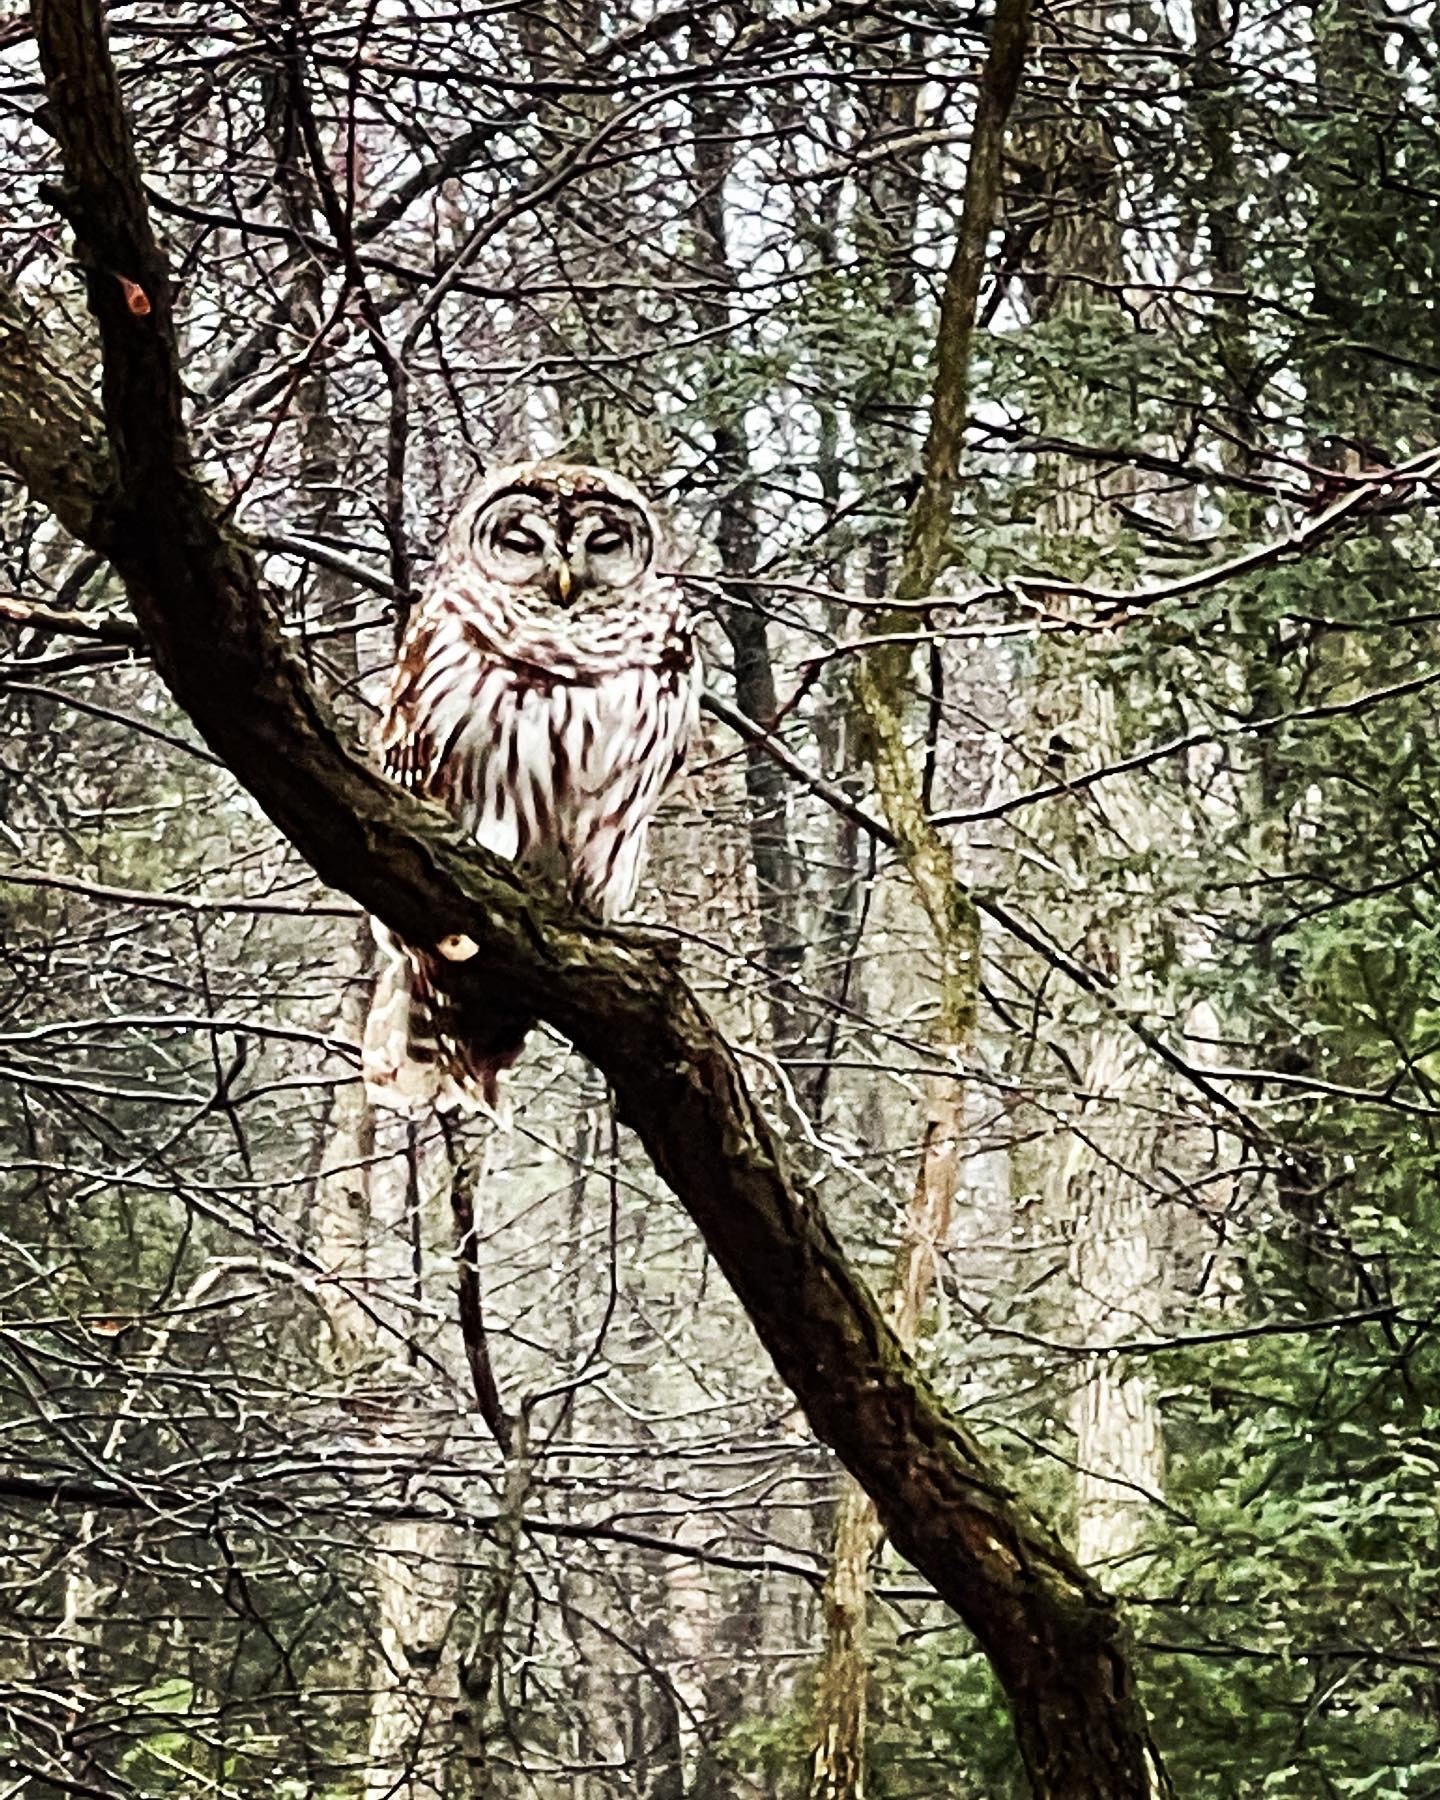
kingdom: Animalia
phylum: Chordata
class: Aves
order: Strigiformes
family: Strigidae
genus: Strix
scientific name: Strix varia
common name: Barred owl
